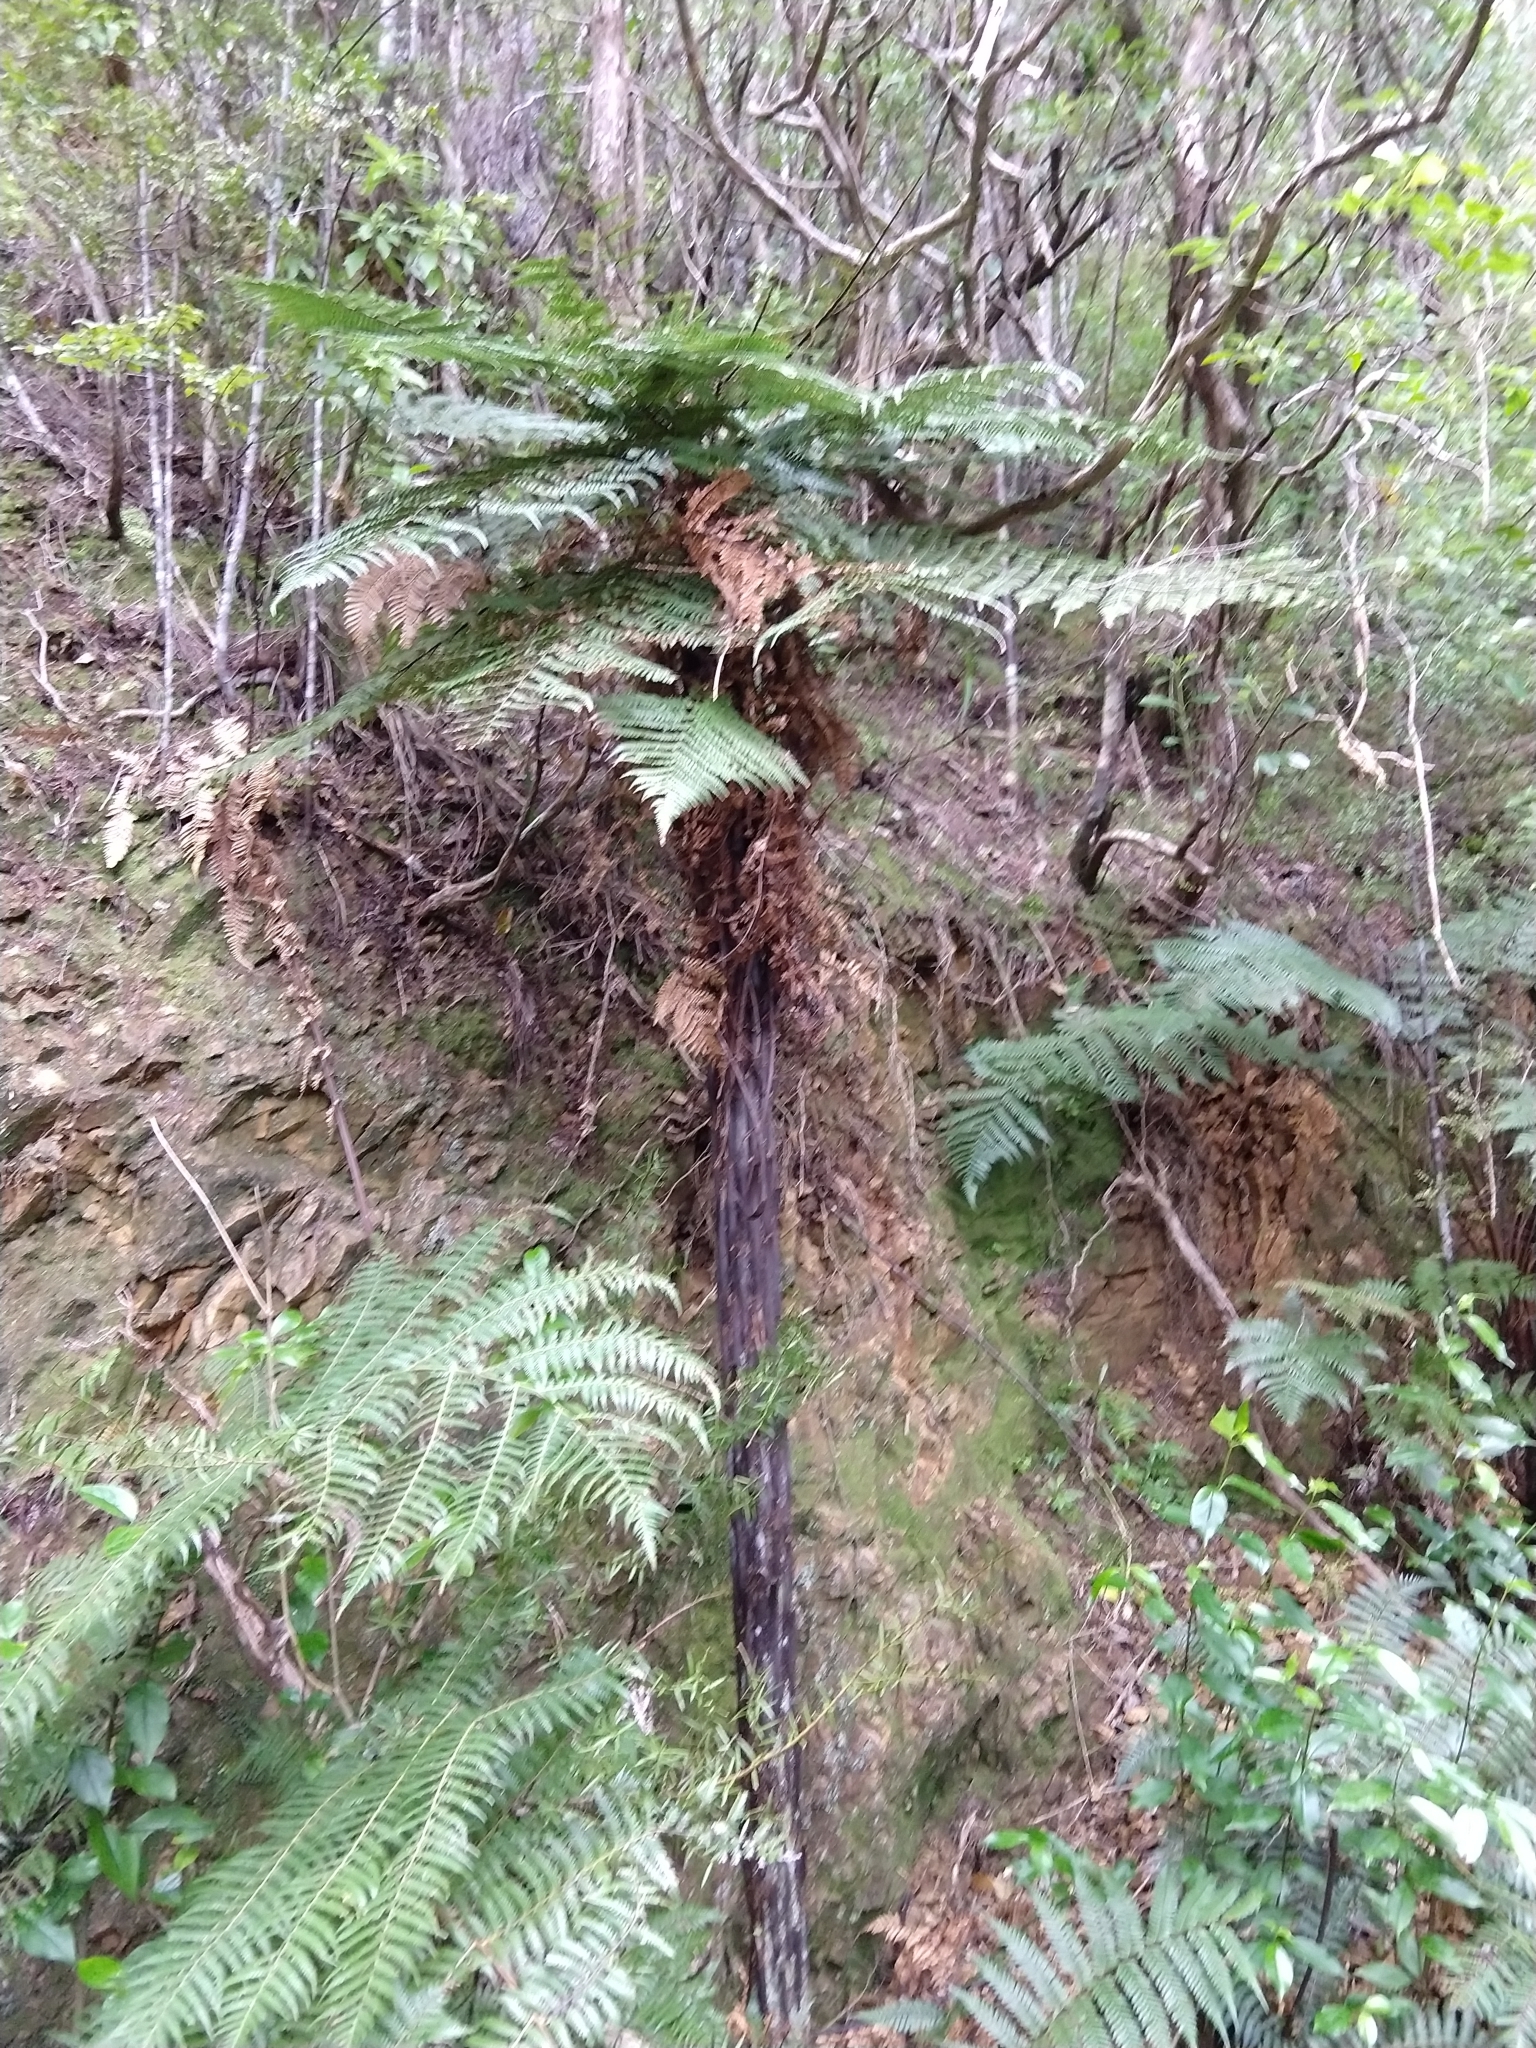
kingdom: Plantae
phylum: Tracheophyta
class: Polypodiopsida
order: Cyatheales
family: Dicksoniaceae
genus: Dicksonia
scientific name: Dicksonia squarrosa
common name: Hard treefern
